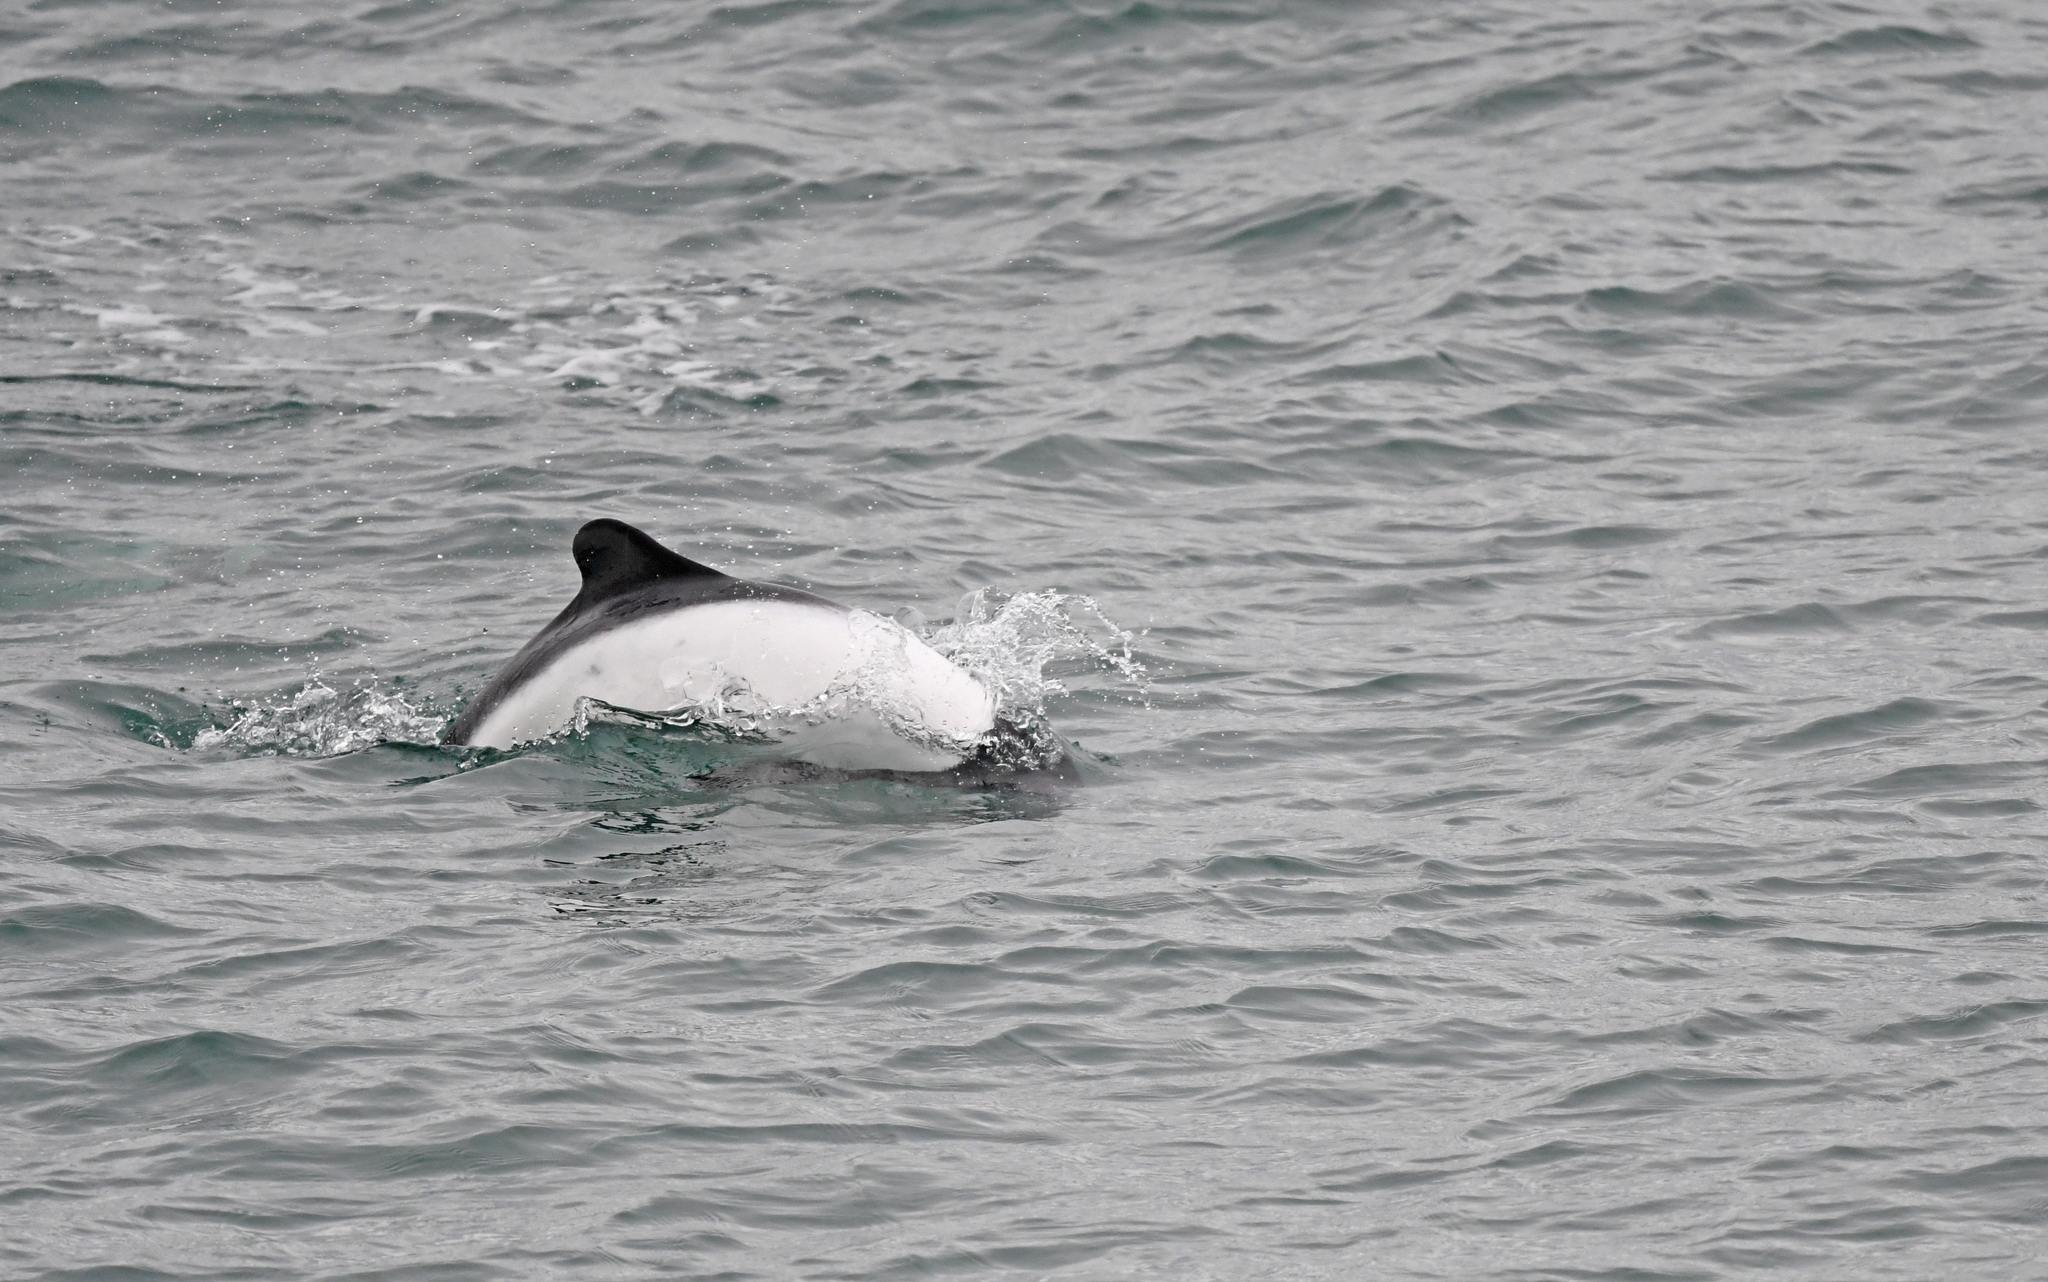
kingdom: Animalia
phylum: Chordata
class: Mammalia
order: Cetacea
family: Delphinidae
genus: Cephalorhynchus
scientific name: Cephalorhynchus commersonii
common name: Commerson's dolphin
